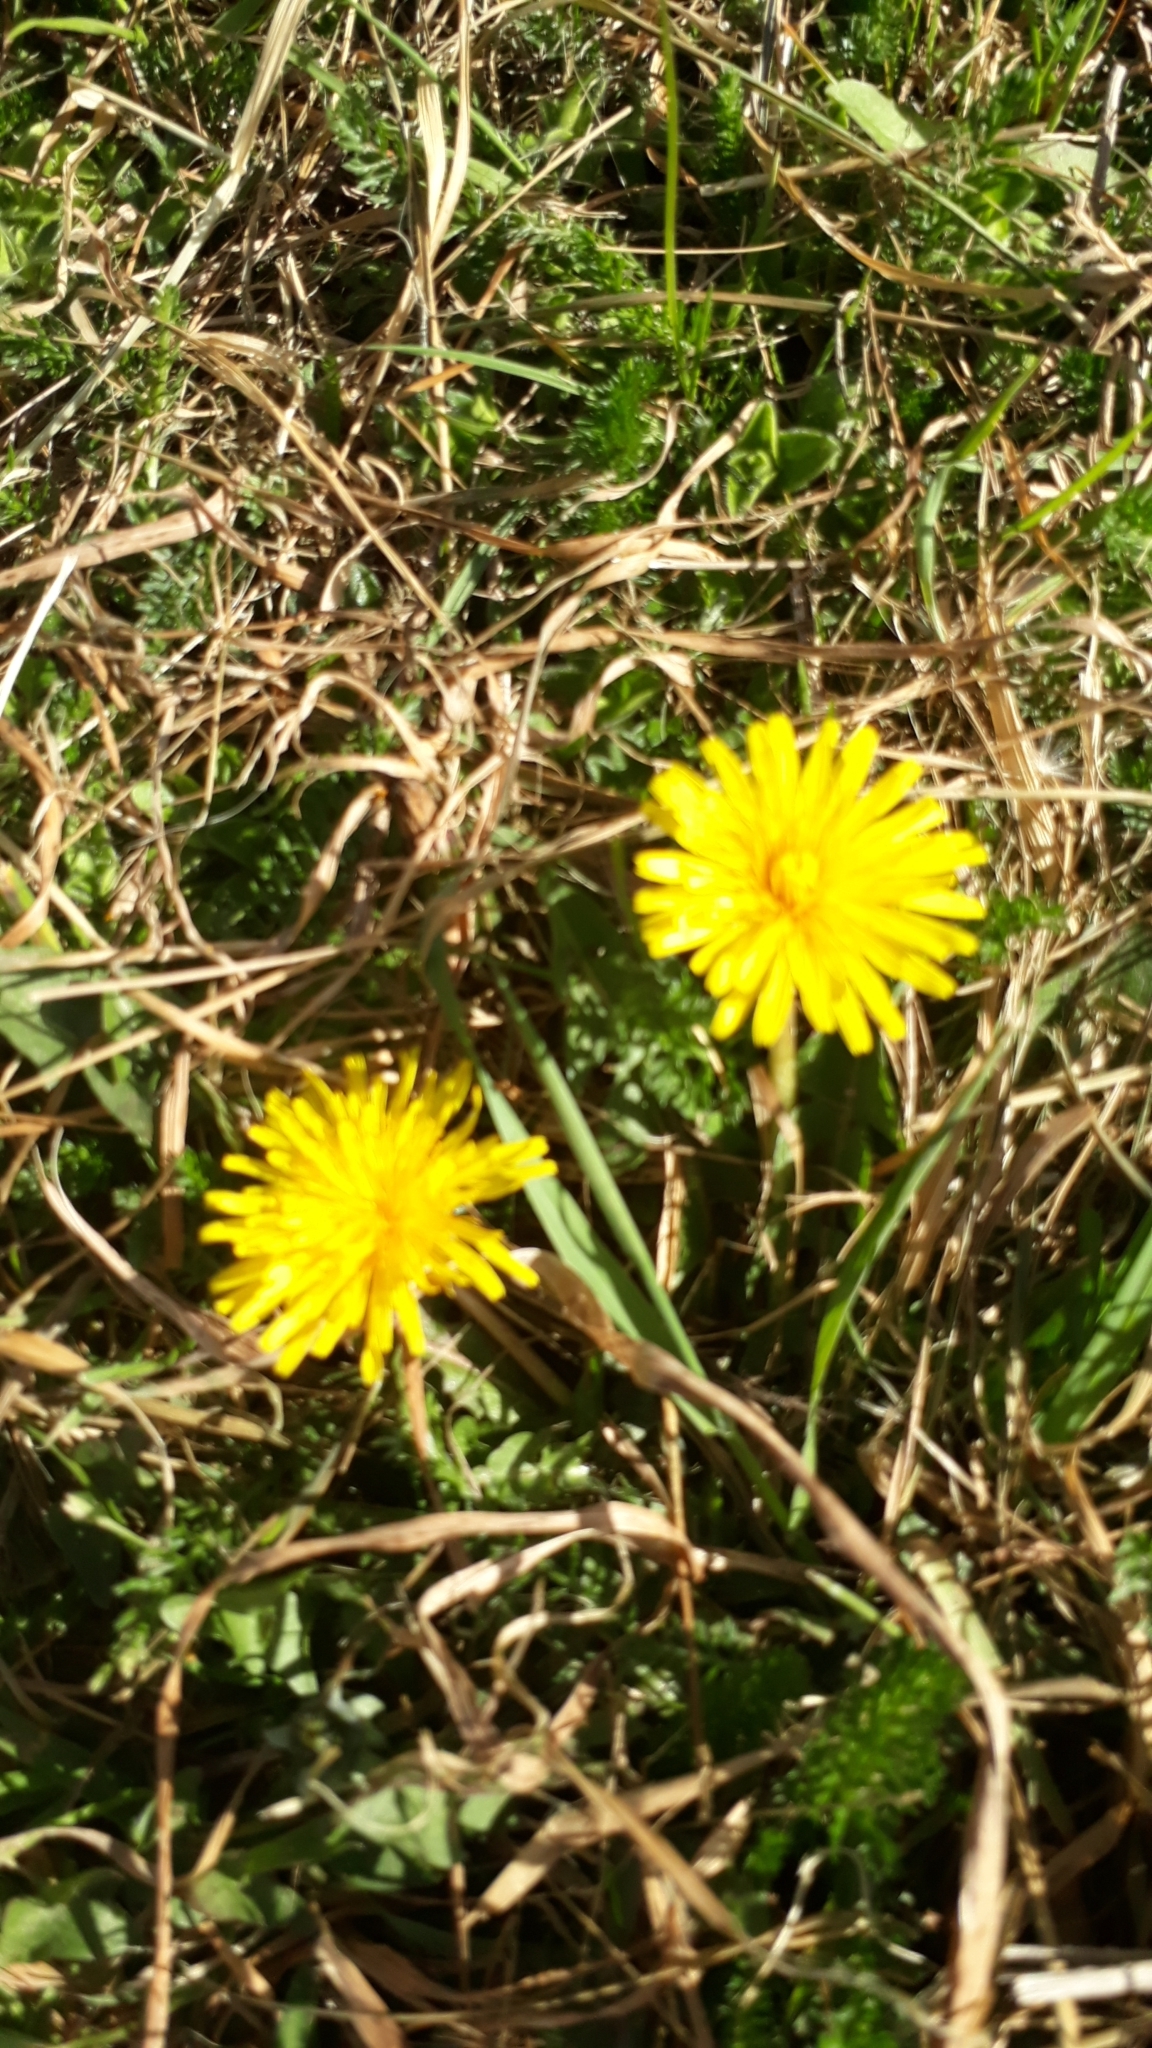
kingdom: Plantae
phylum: Tracheophyta
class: Magnoliopsida
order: Asterales
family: Asteraceae
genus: Taraxacum
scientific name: Taraxacum officinale
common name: Common dandelion
